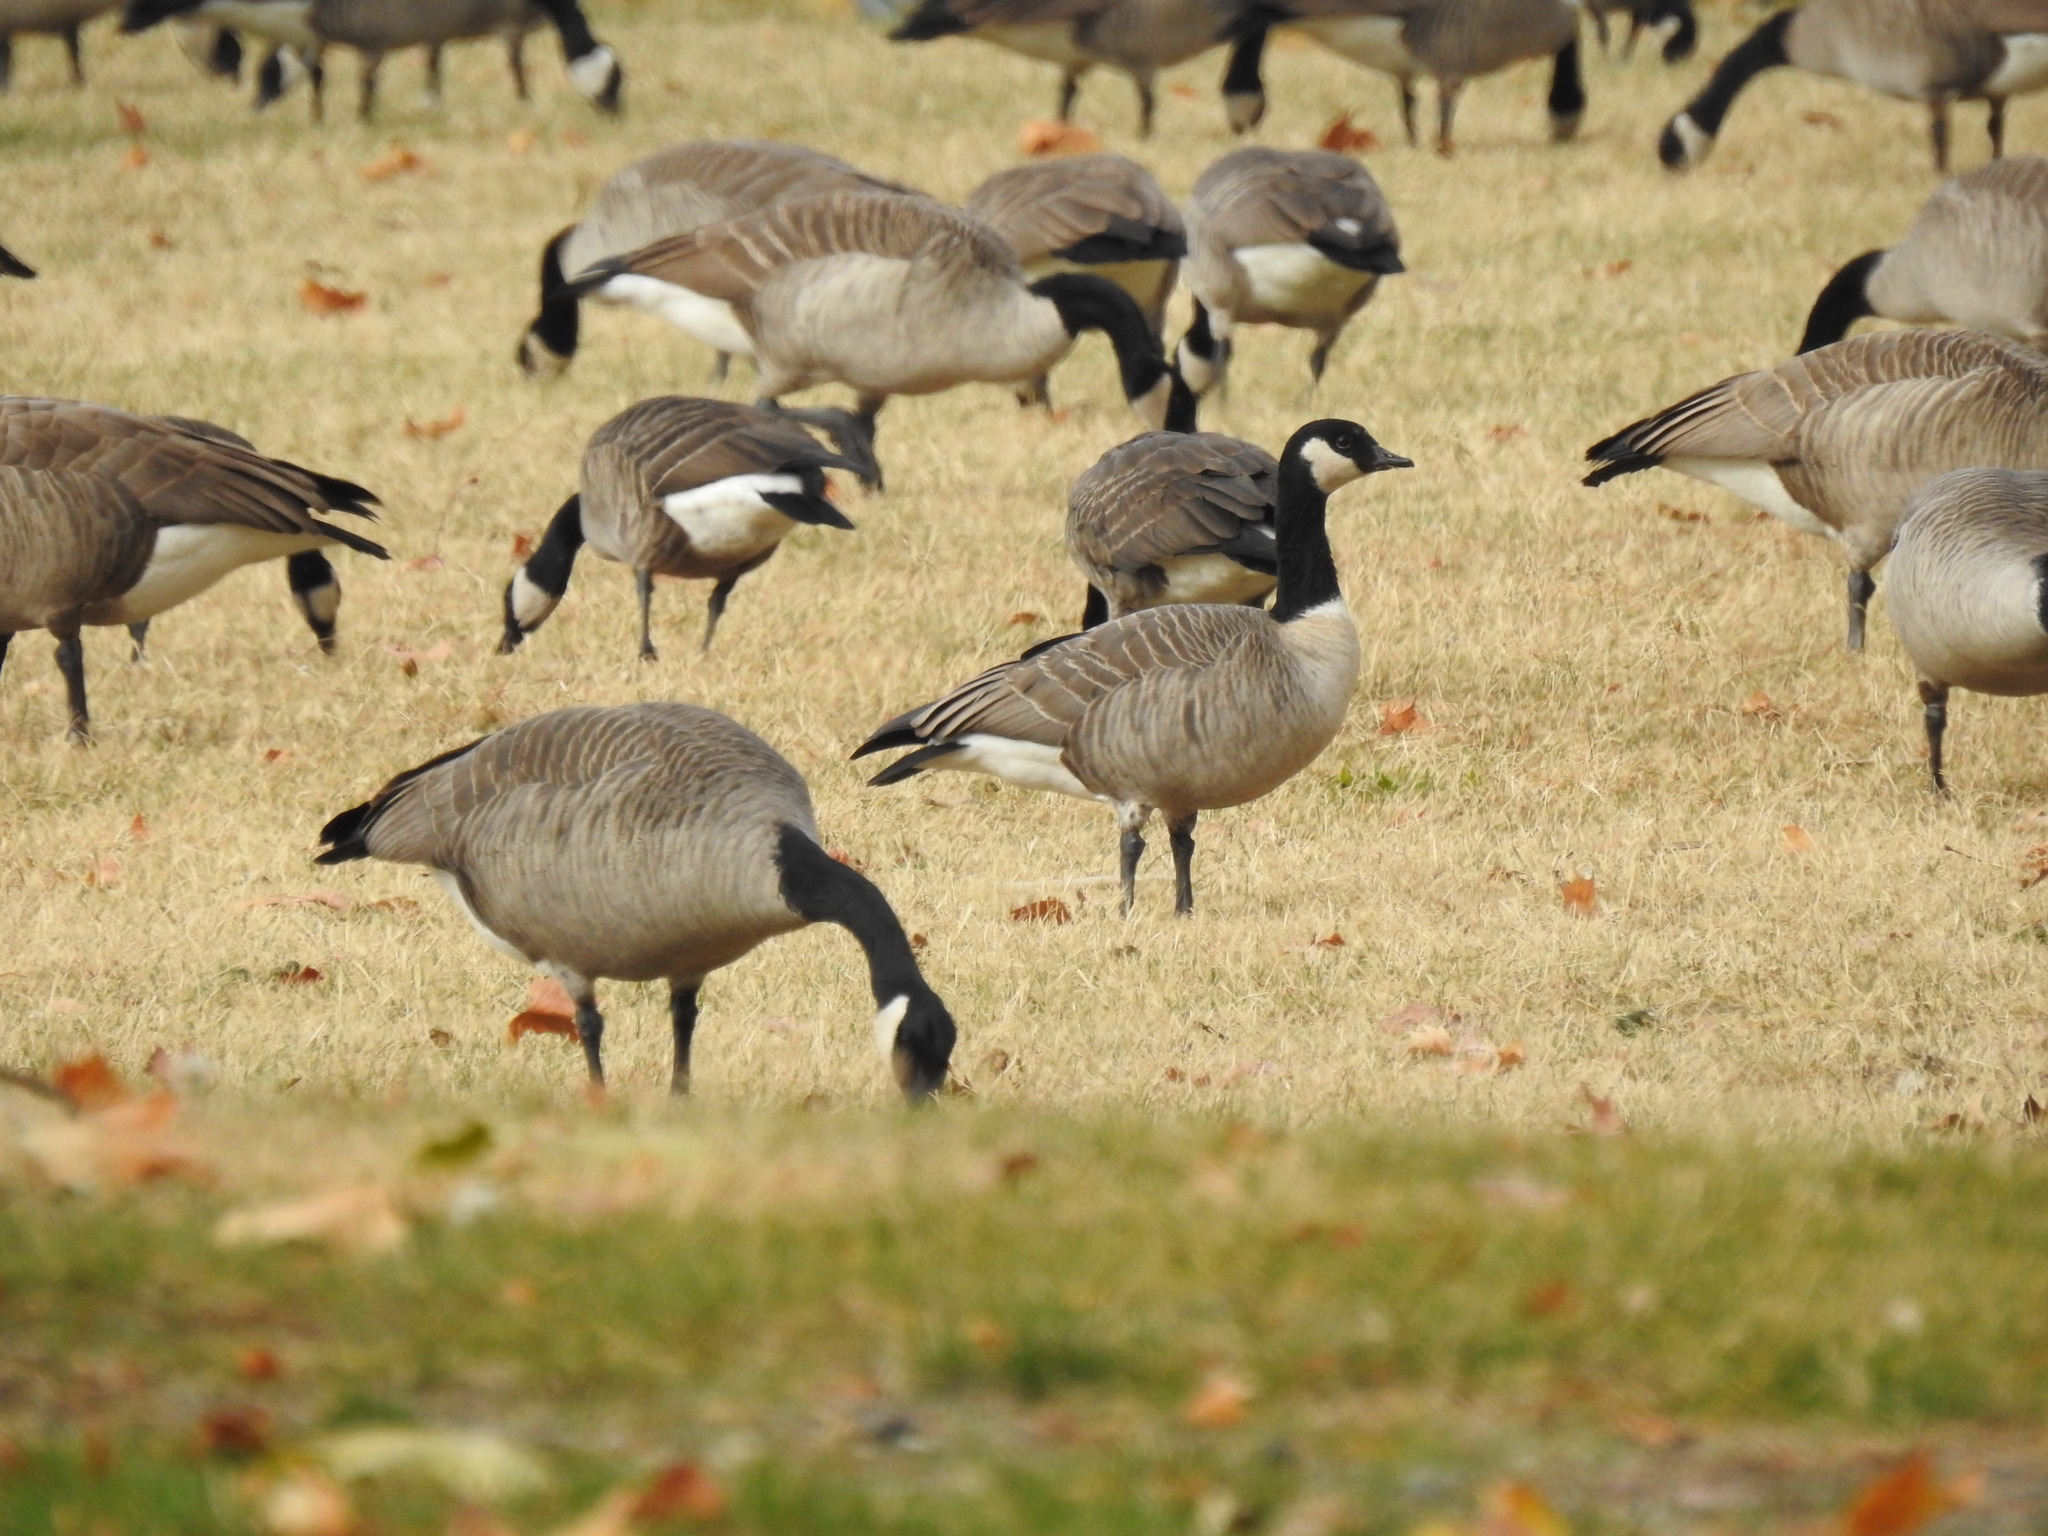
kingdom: Animalia
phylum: Chordata
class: Aves
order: Anseriformes
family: Anatidae
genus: Branta
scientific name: Branta hutchinsii
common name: Cackling goose
